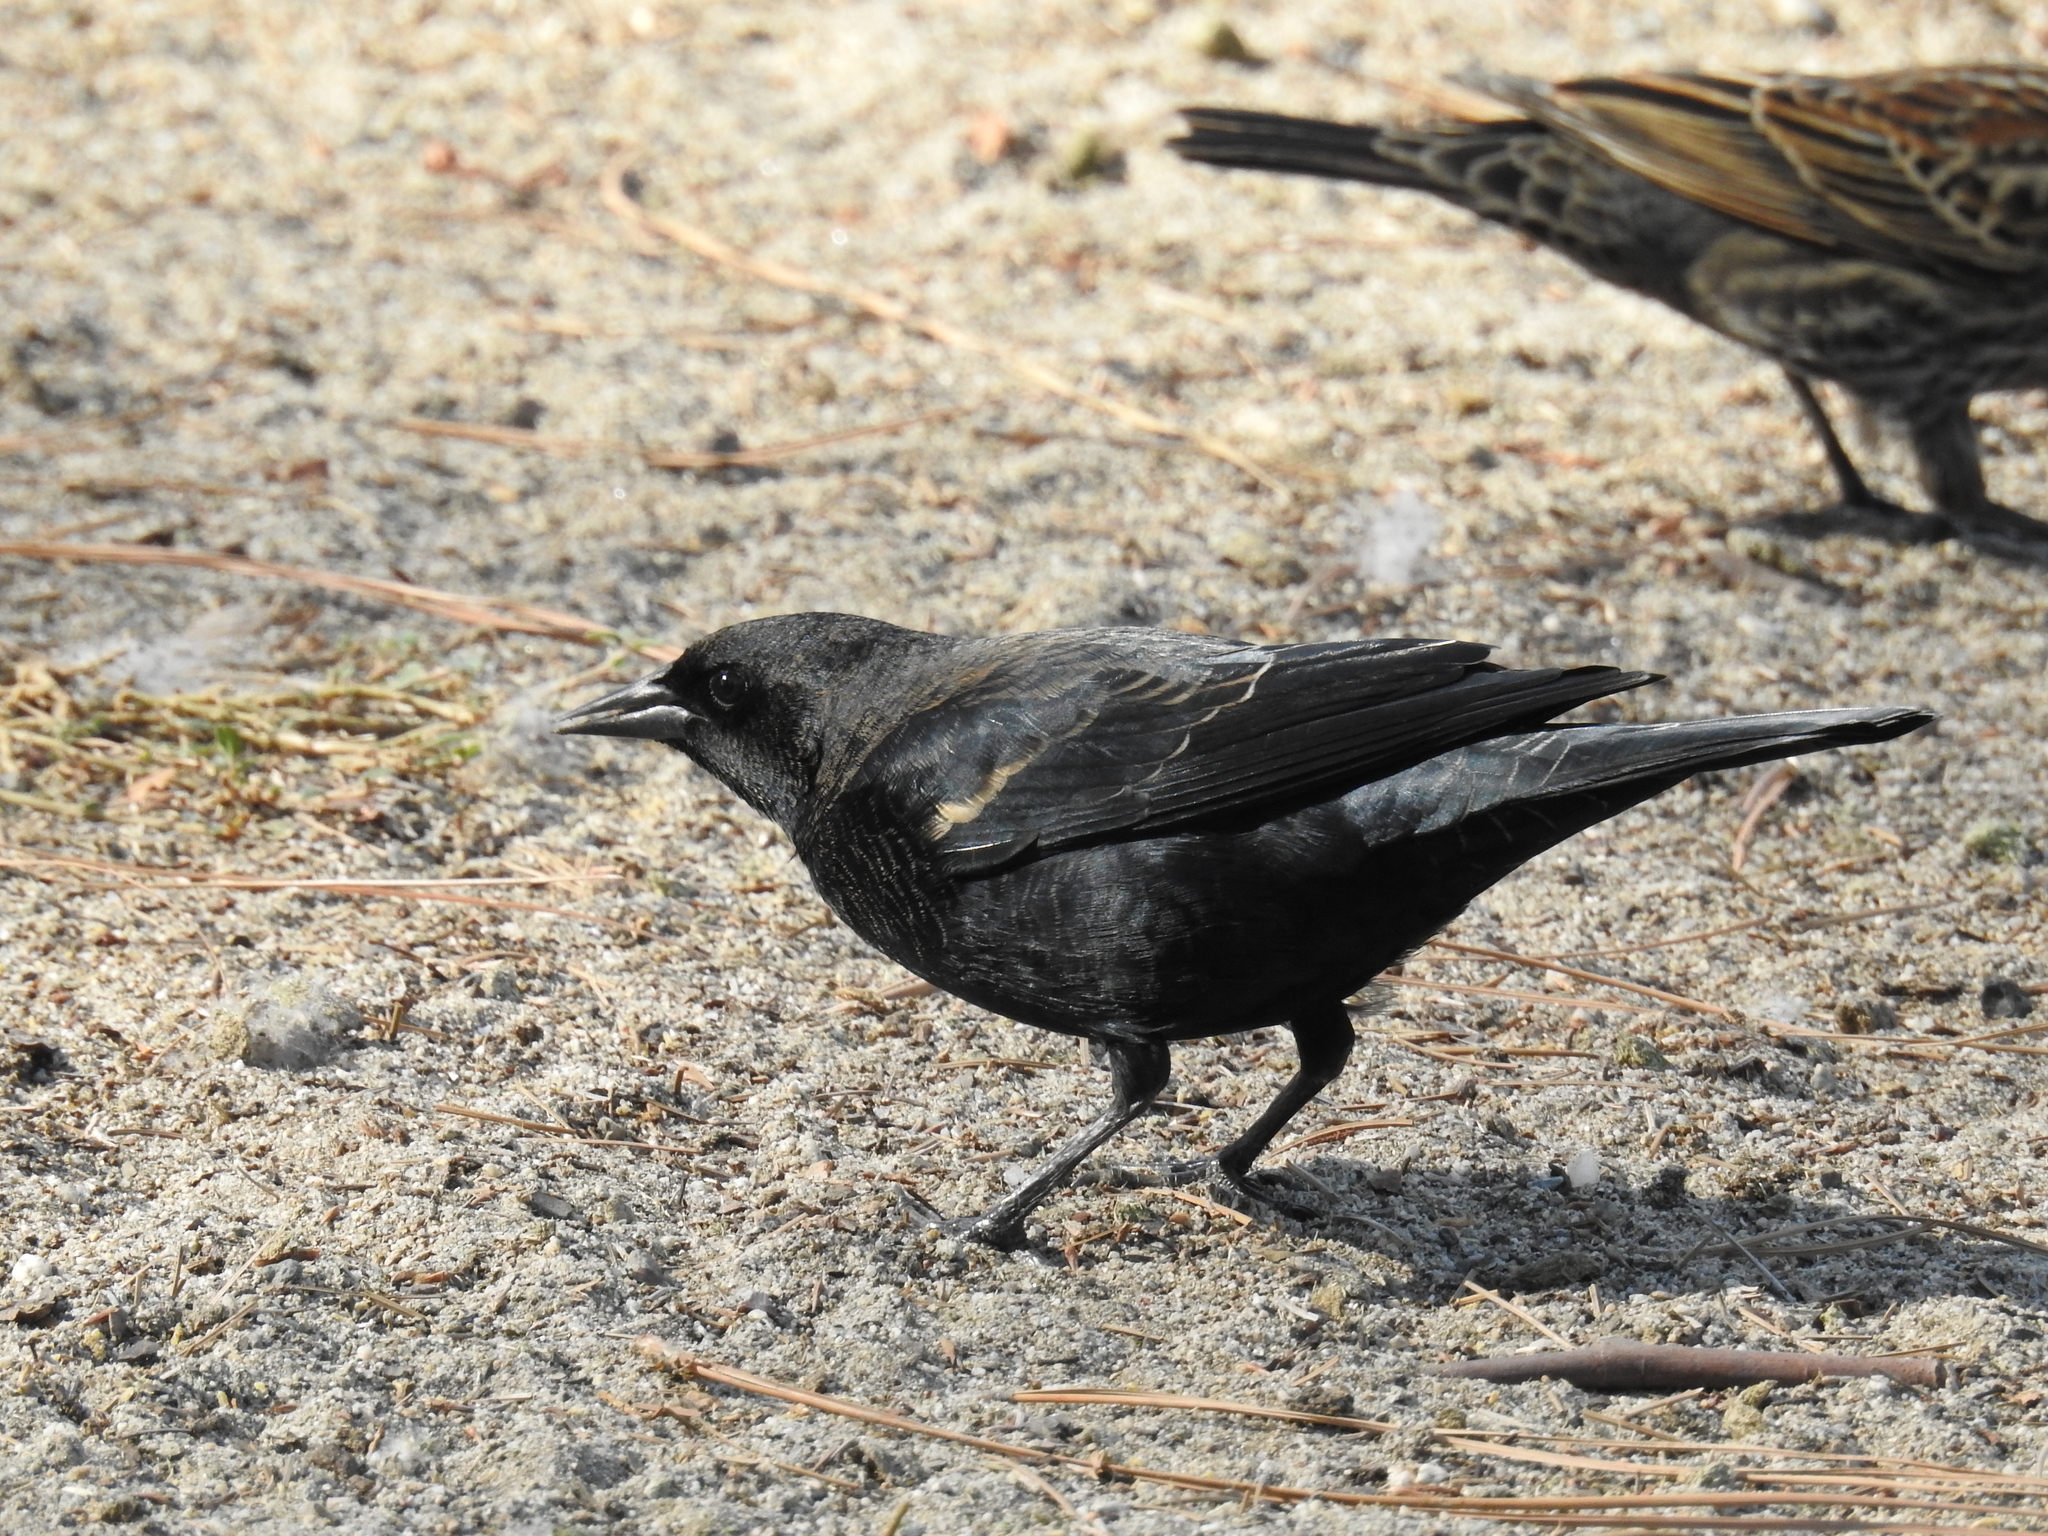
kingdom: Animalia
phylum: Chordata
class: Aves
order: Passeriformes
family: Icteridae
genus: Agelaius
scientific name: Agelaius phoeniceus
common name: Red-winged blackbird
